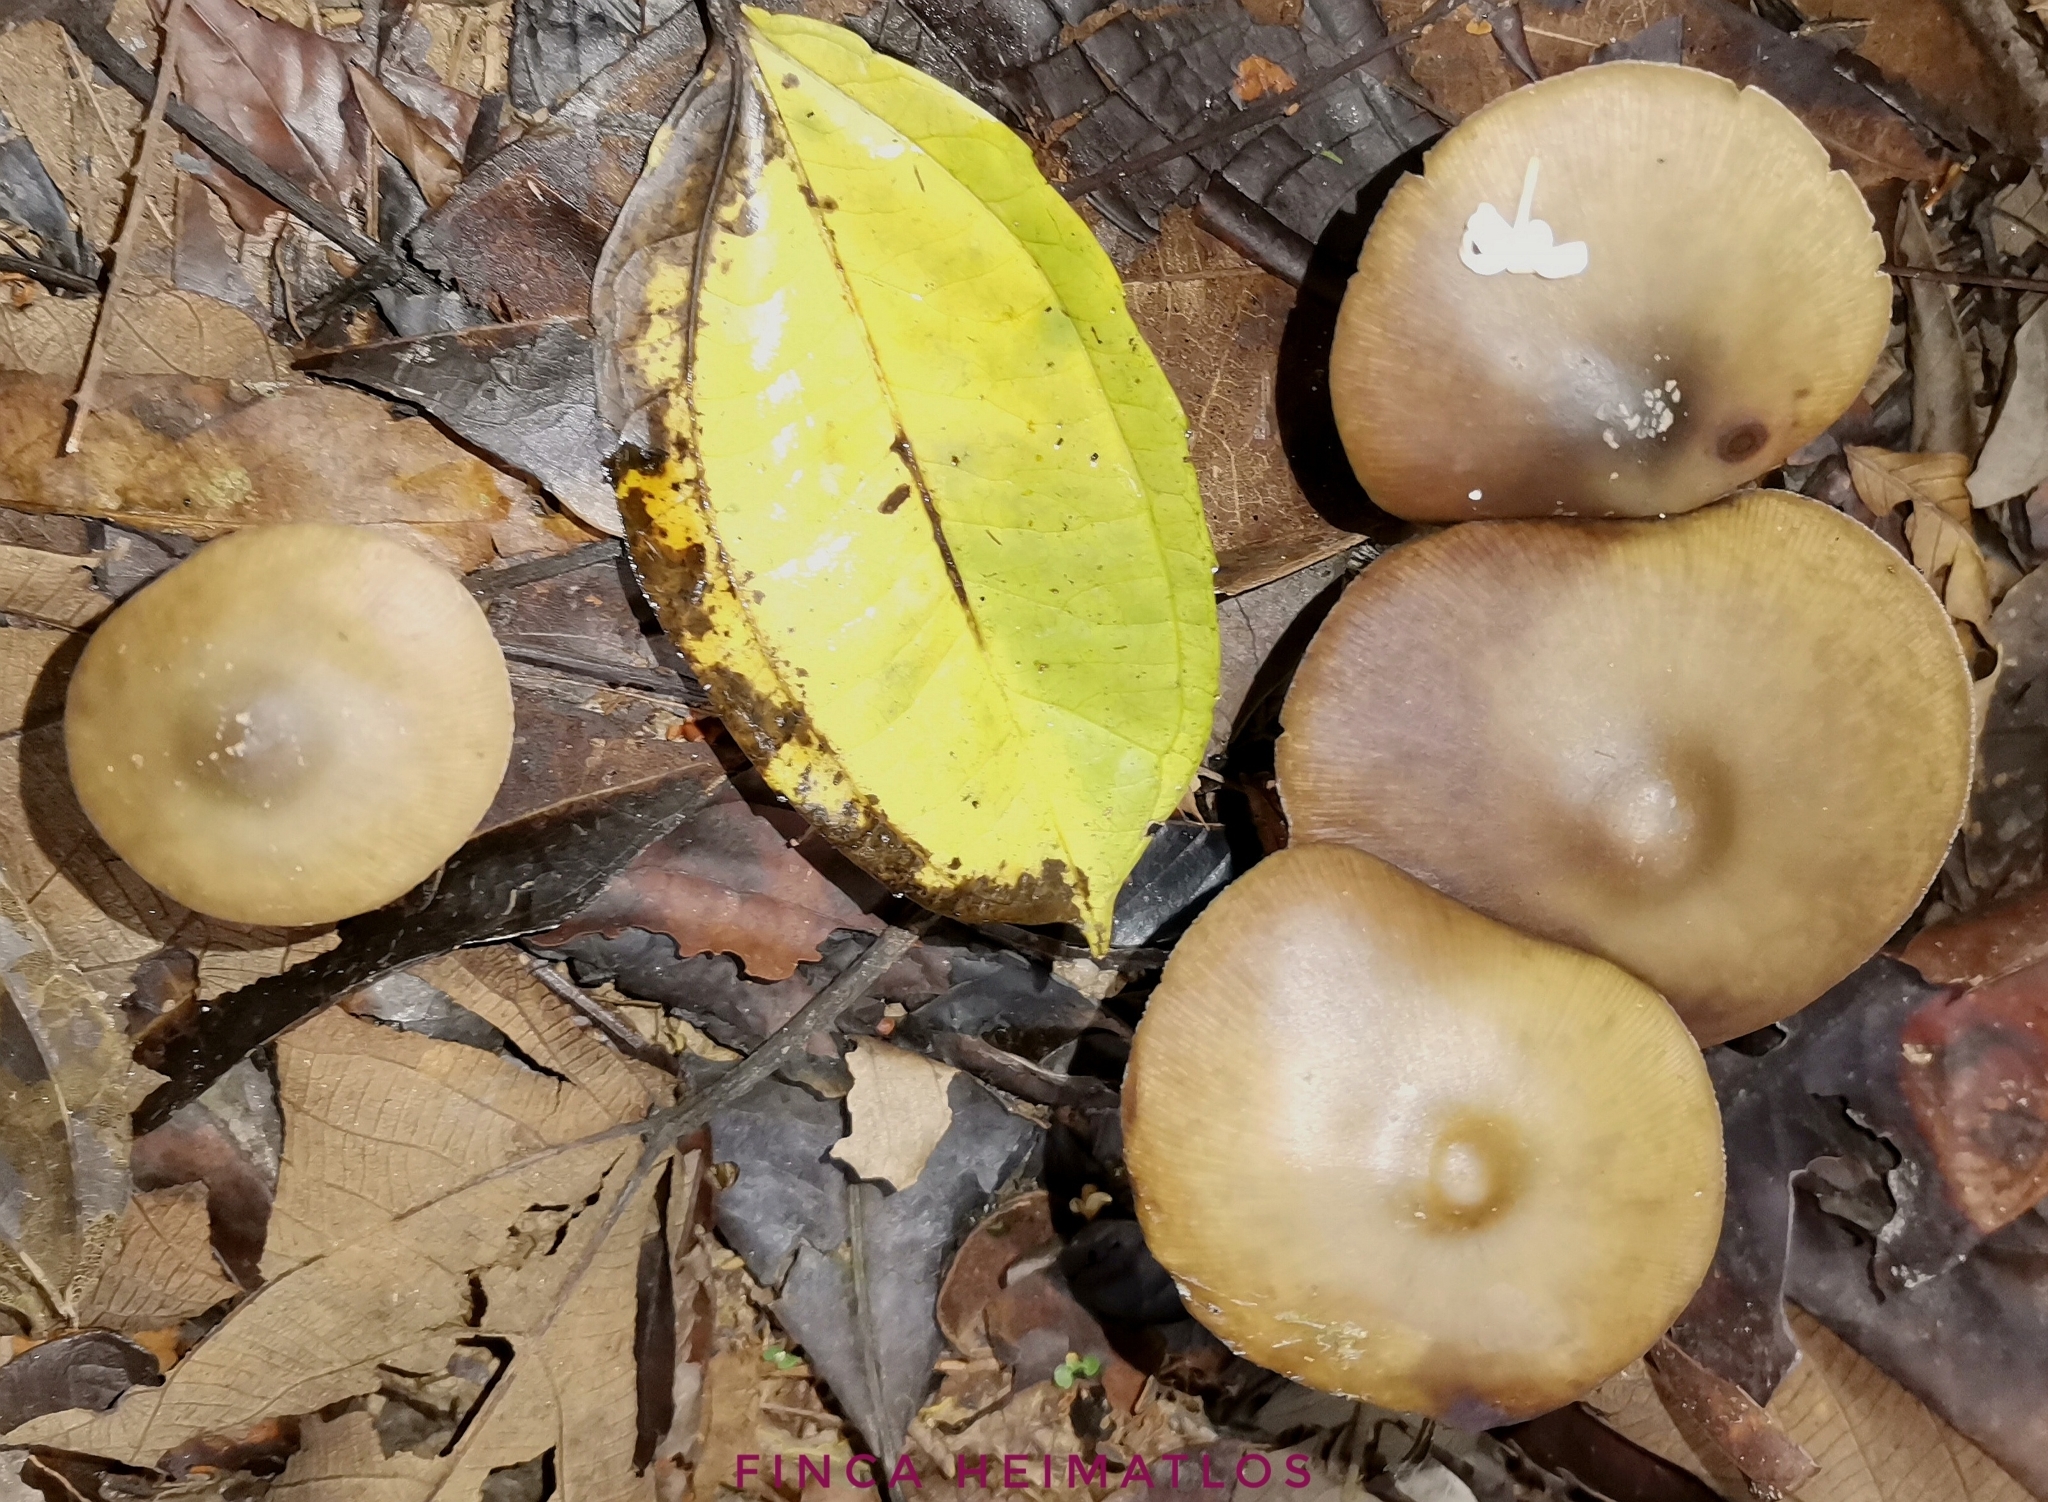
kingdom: Fungi
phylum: Basidiomycota
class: Agaricomycetes
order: Agaricales
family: Hymenogastraceae
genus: Psilocybe
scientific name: Psilocybe caerulescens
